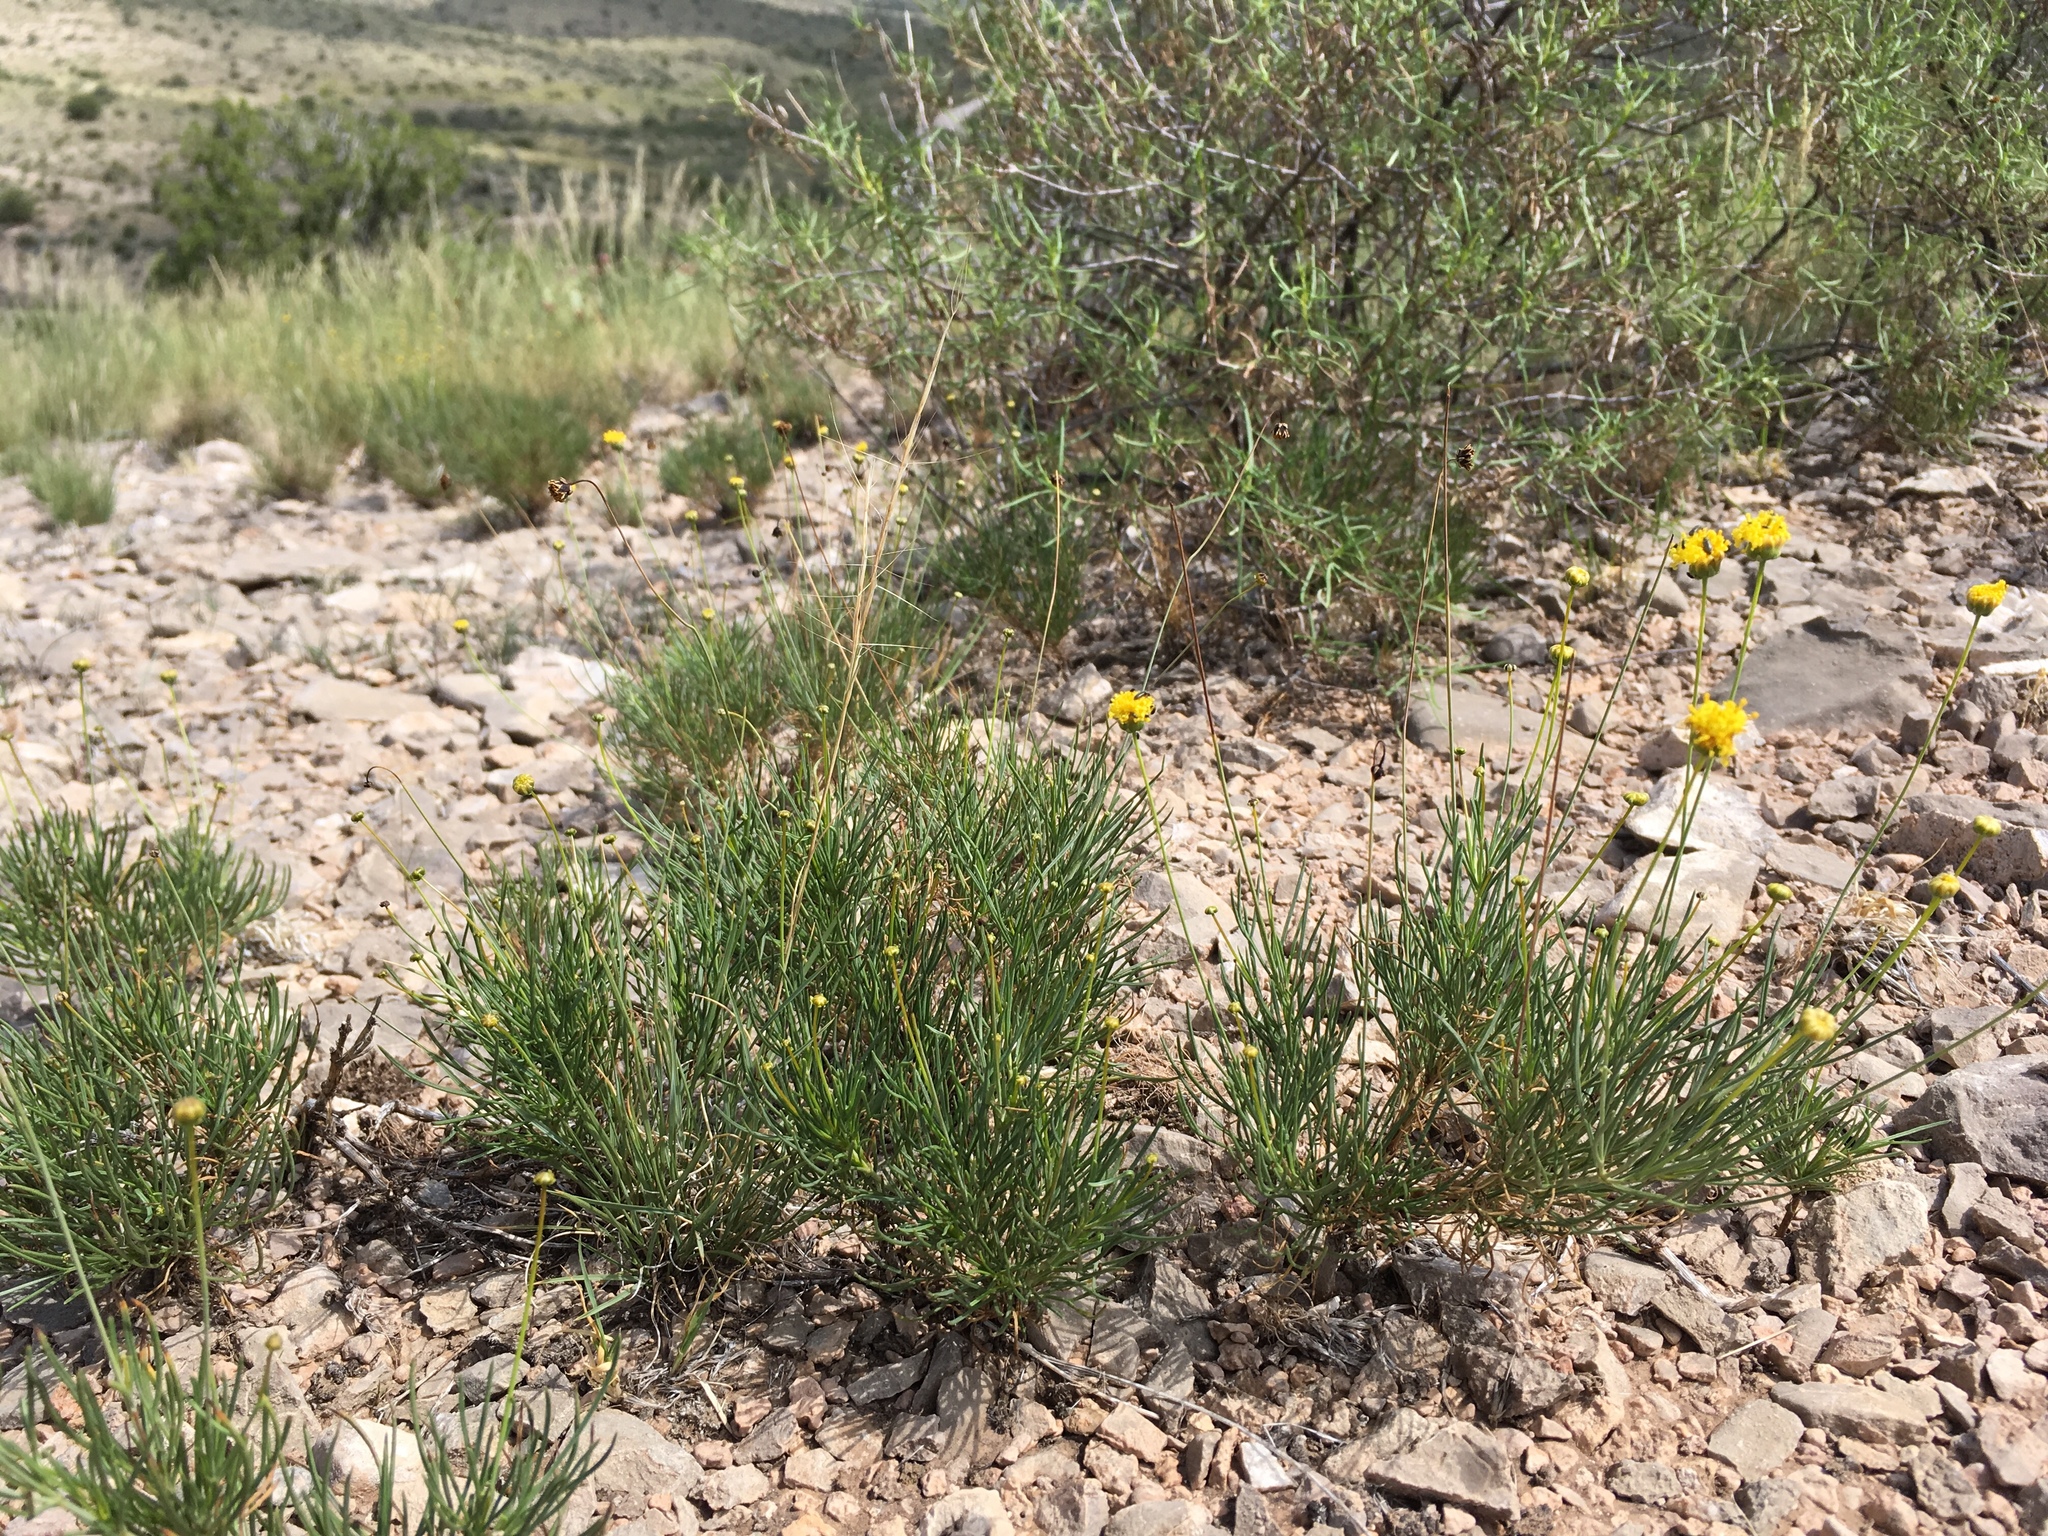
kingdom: Plantae
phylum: Tracheophyta
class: Magnoliopsida
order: Asterales
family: Asteraceae
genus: Thelesperma
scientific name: Thelesperma longipes
